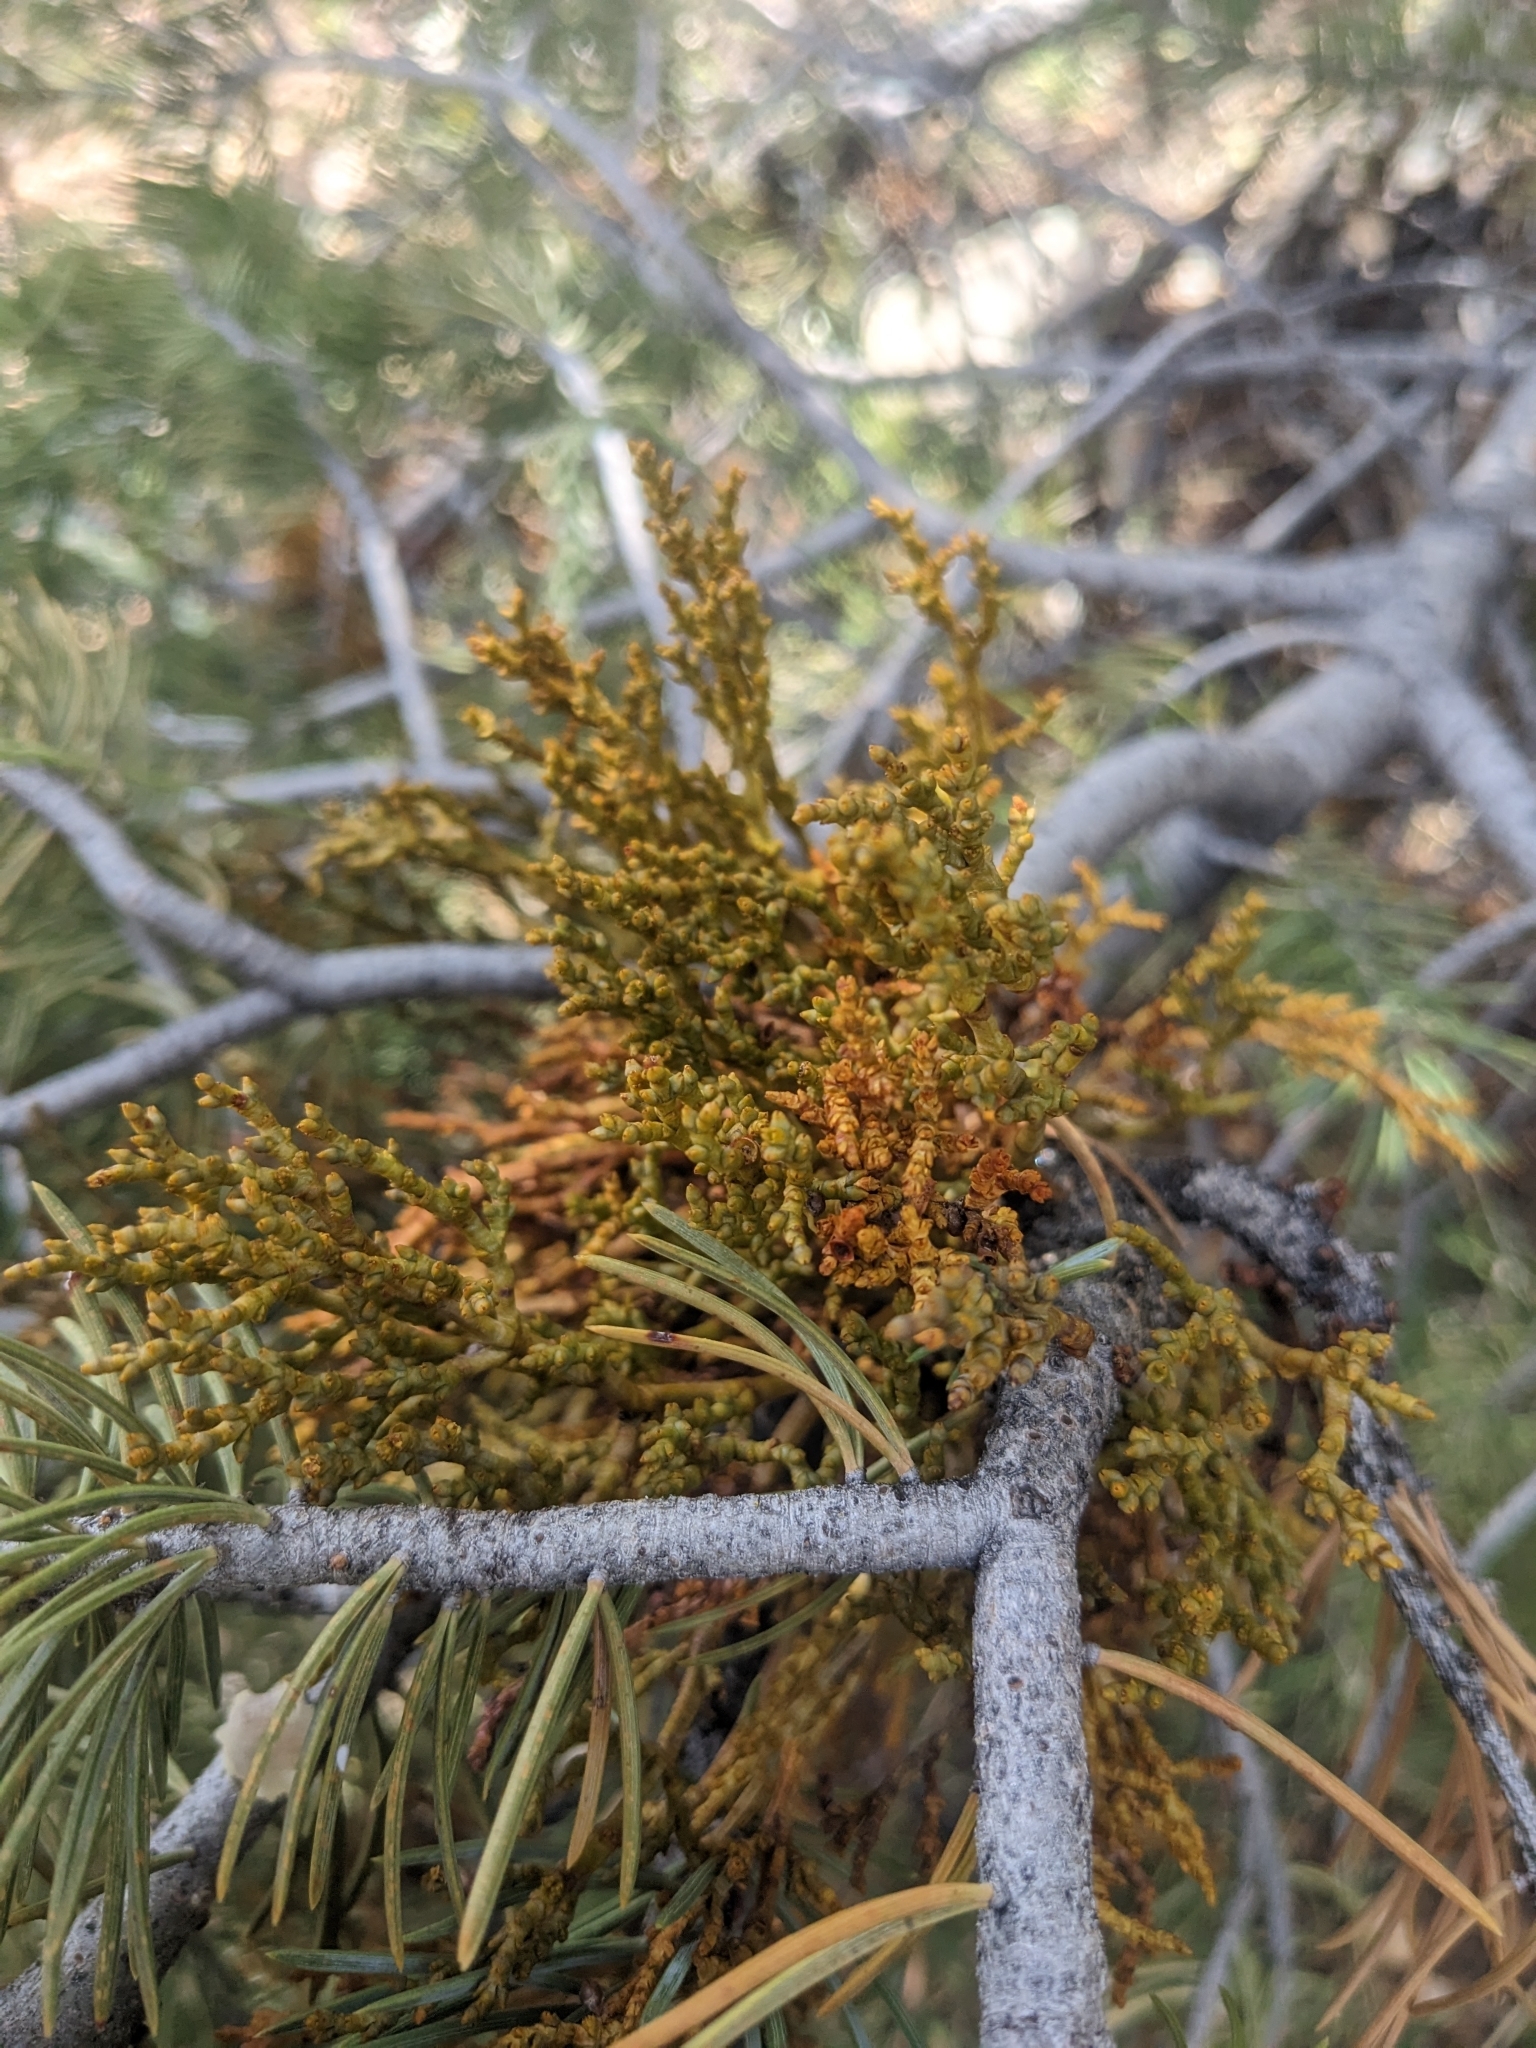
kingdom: Plantae
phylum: Tracheophyta
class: Magnoliopsida
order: Santalales
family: Viscaceae
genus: Arceuthobium
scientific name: Arceuthobium divaricatum
